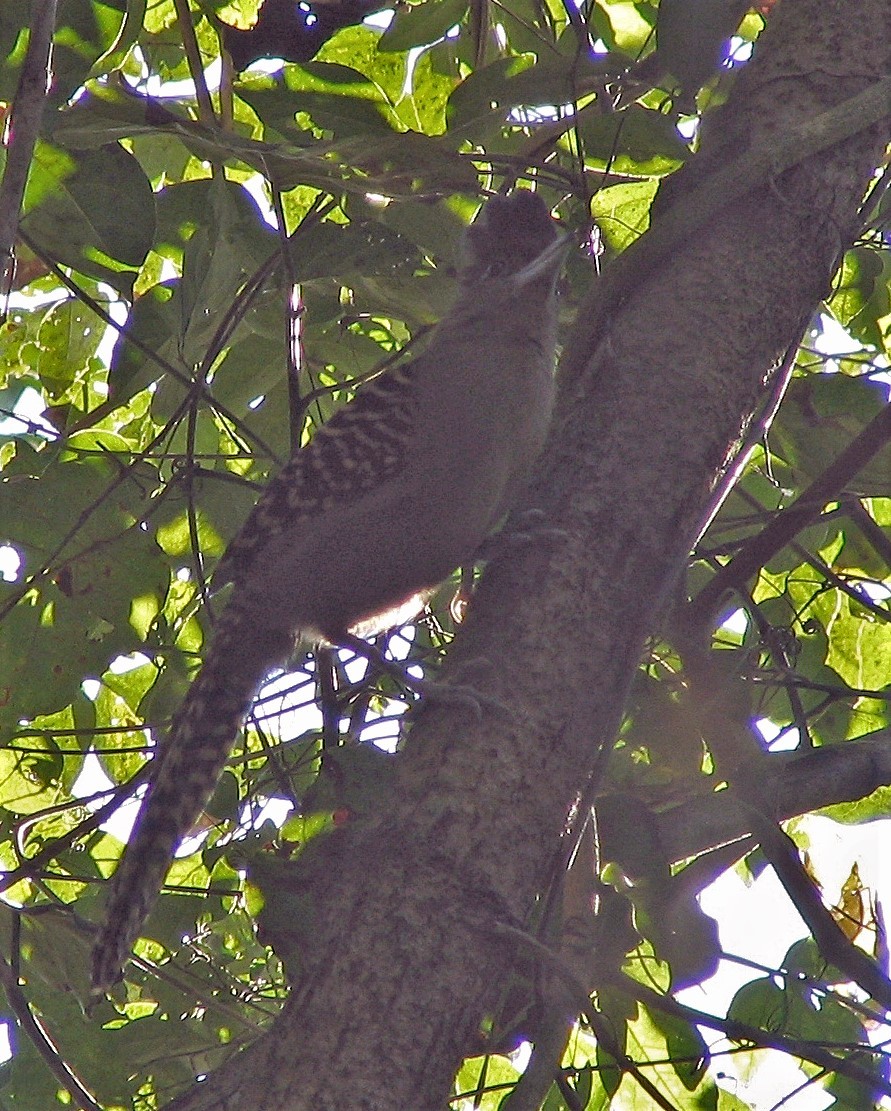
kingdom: Animalia
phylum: Chordata
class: Aves
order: Passeriformes
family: Thamnophilidae
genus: Batara
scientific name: Batara cinerea
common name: Giant antshrike
